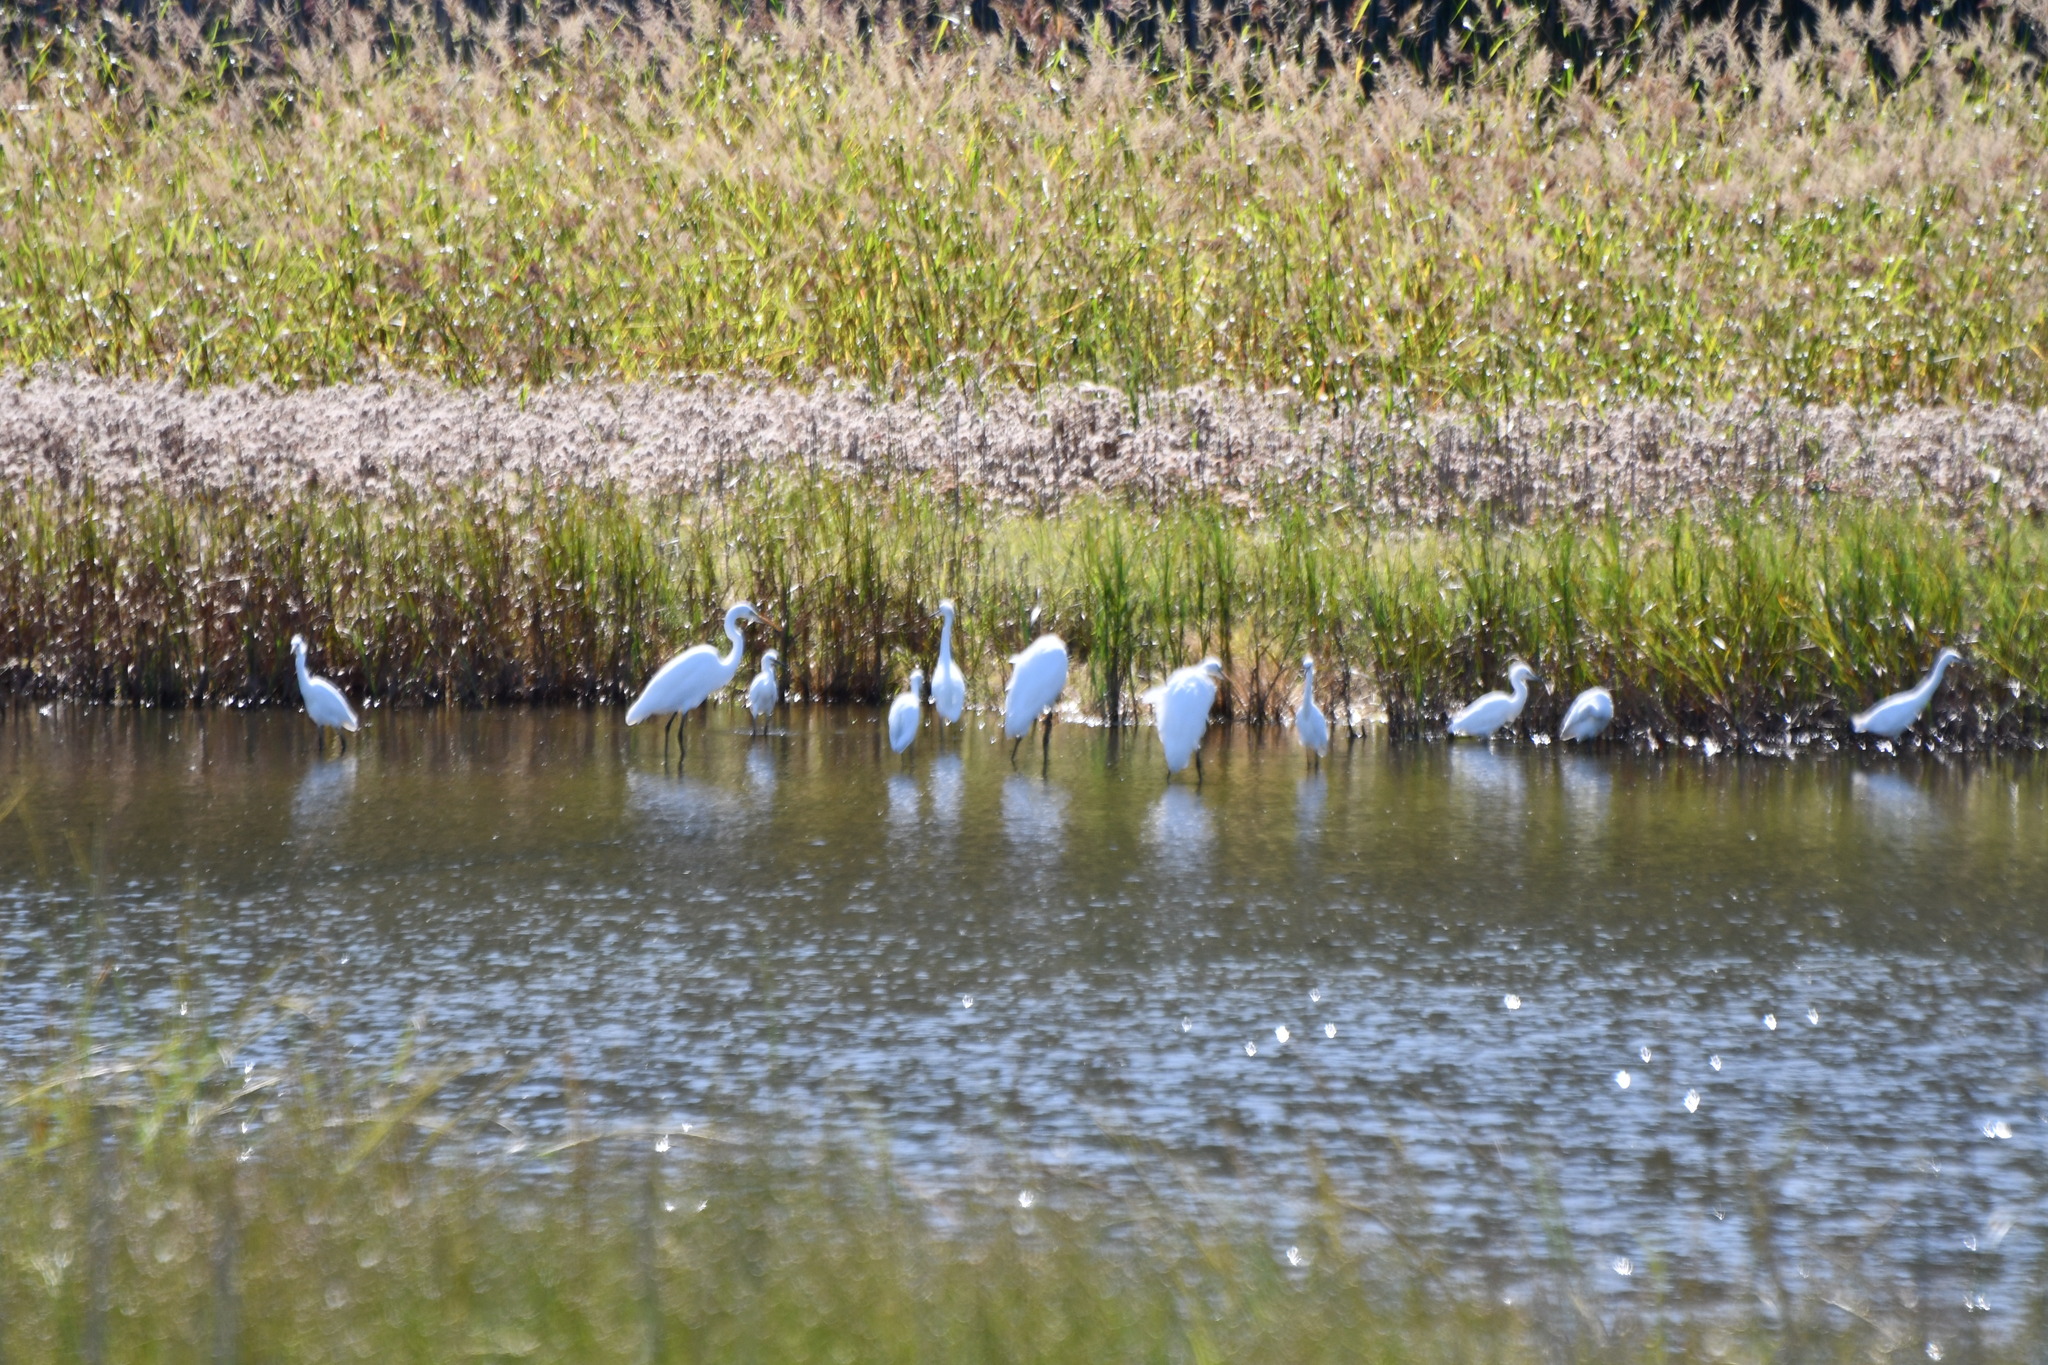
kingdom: Animalia
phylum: Chordata
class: Aves
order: Pelecaniformes
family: Ardeidae
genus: Ardea
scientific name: Ardea alba
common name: Great egret
